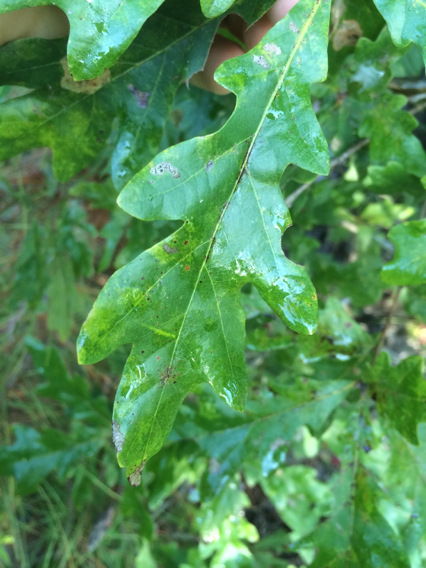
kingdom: Plantae
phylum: Tracheophyta
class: Magnoliopsida
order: Fagales
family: Fagaceae
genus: Quercus
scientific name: Quercus lyrata
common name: Overcup oak
